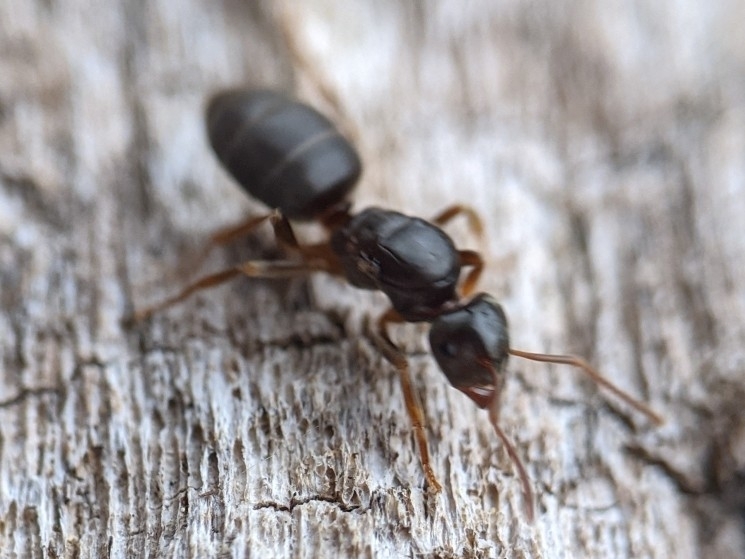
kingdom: Animalia
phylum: Arthropoda
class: Insecta
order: Hymenoptera
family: Formicidae
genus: Lasius
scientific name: Lasius aphidicola
